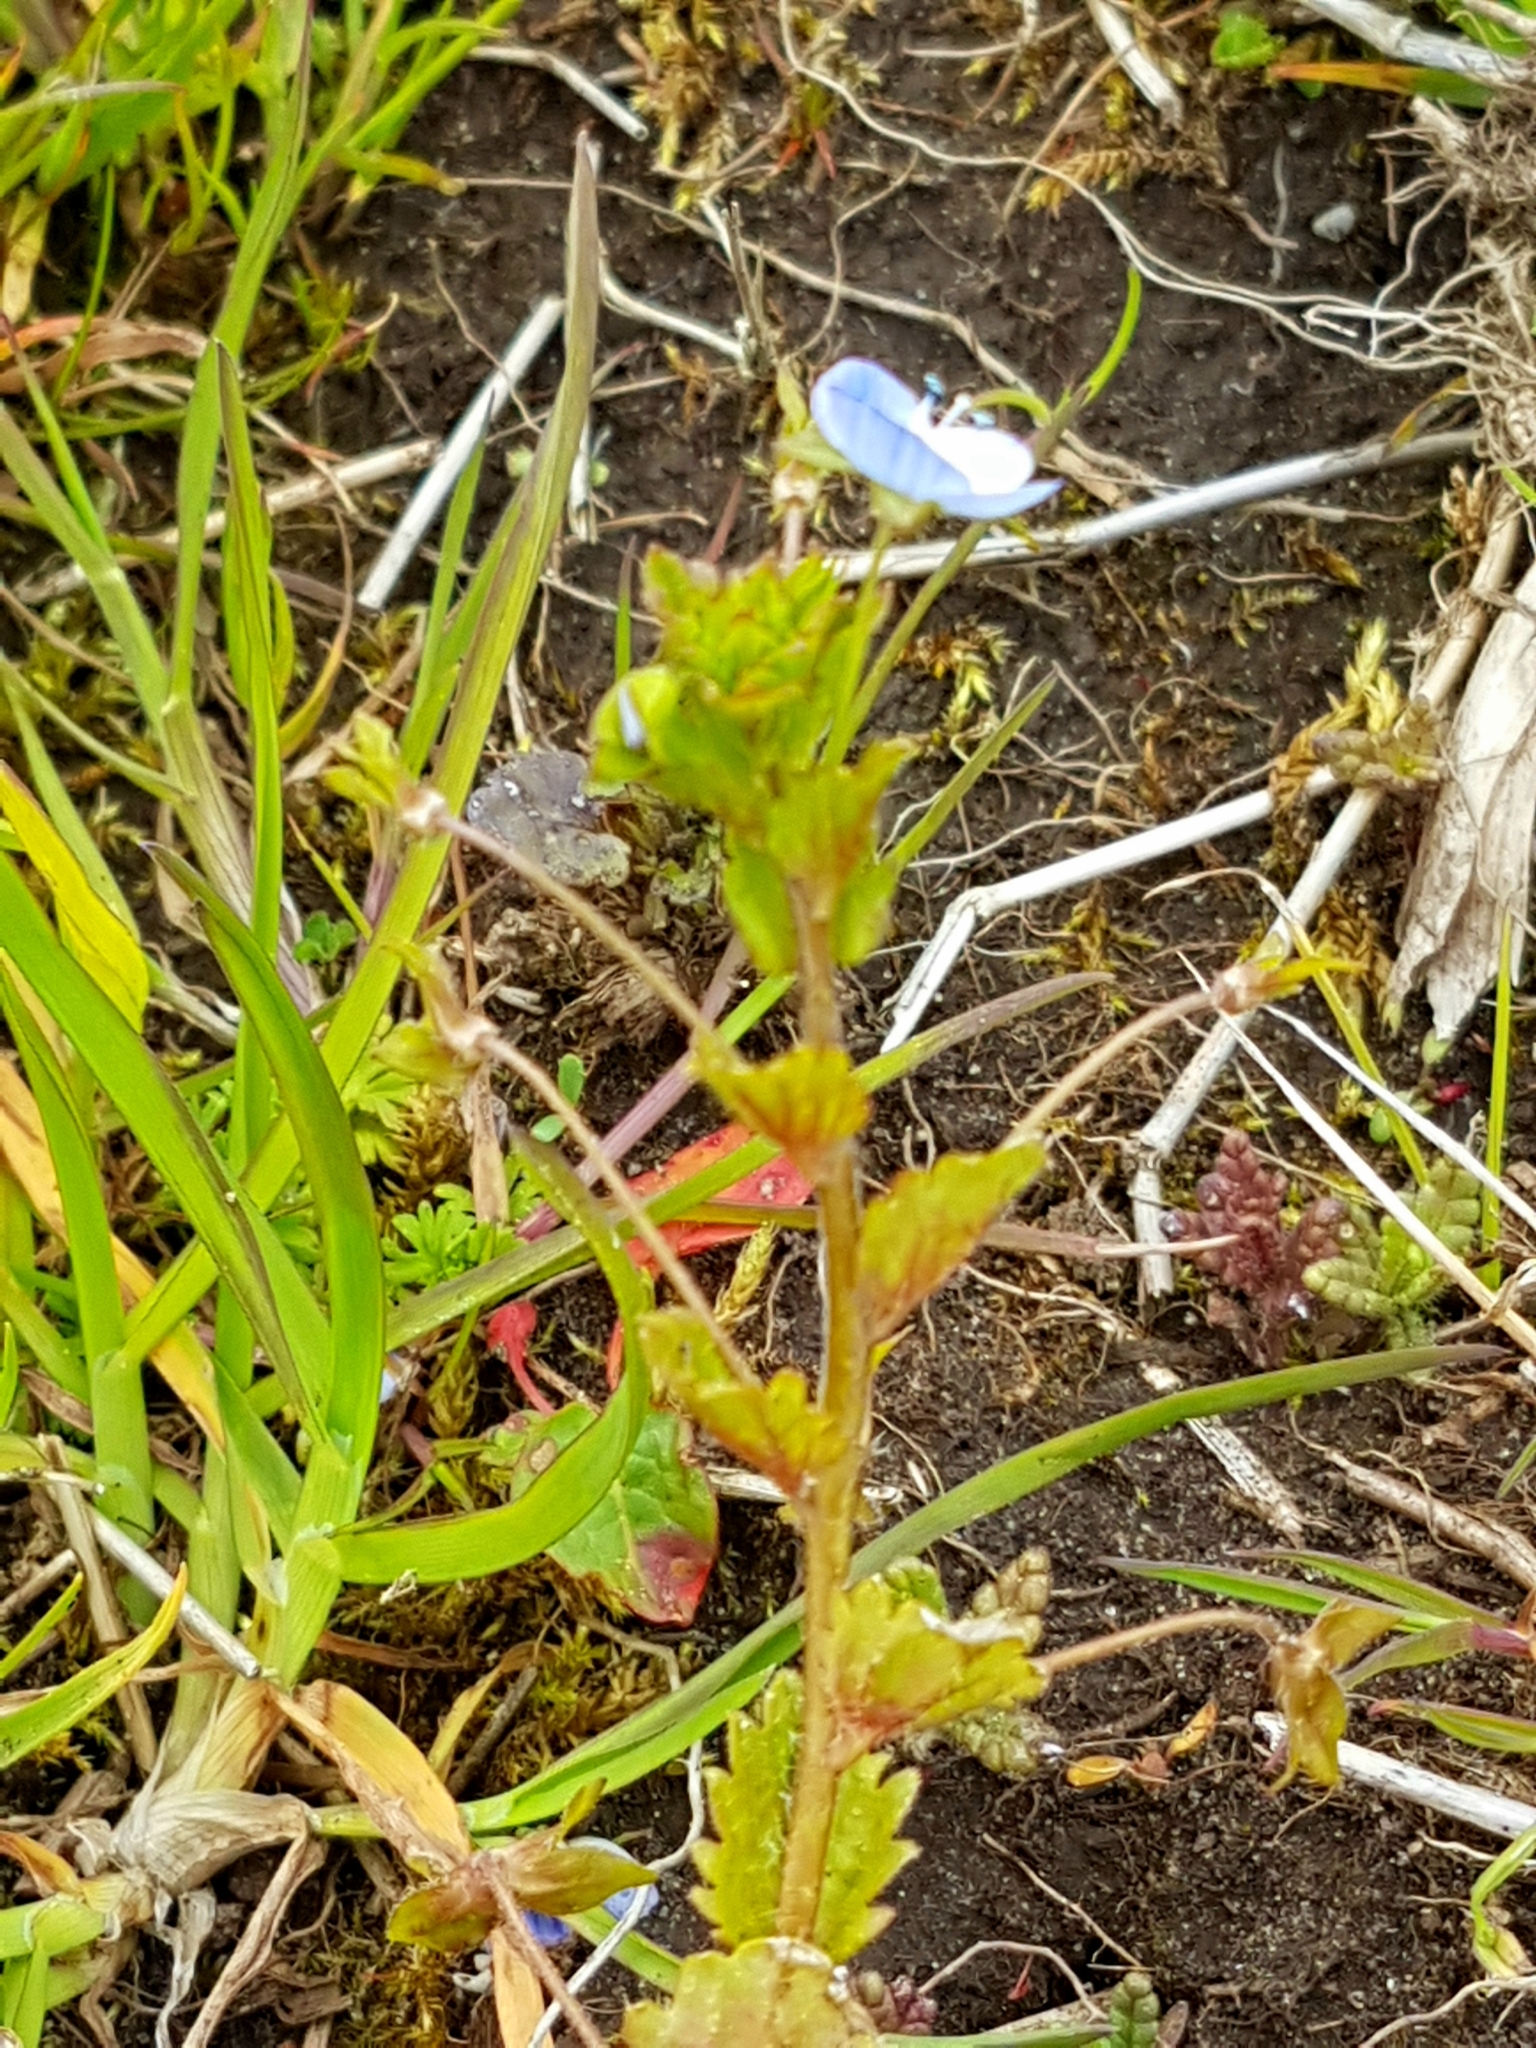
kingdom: Plantae
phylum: Tracheophyta
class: Magnoliopsida
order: Lamiales
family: Plantaginaceae
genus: Veronica
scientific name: Veronica persica
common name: Common field-speedwell
